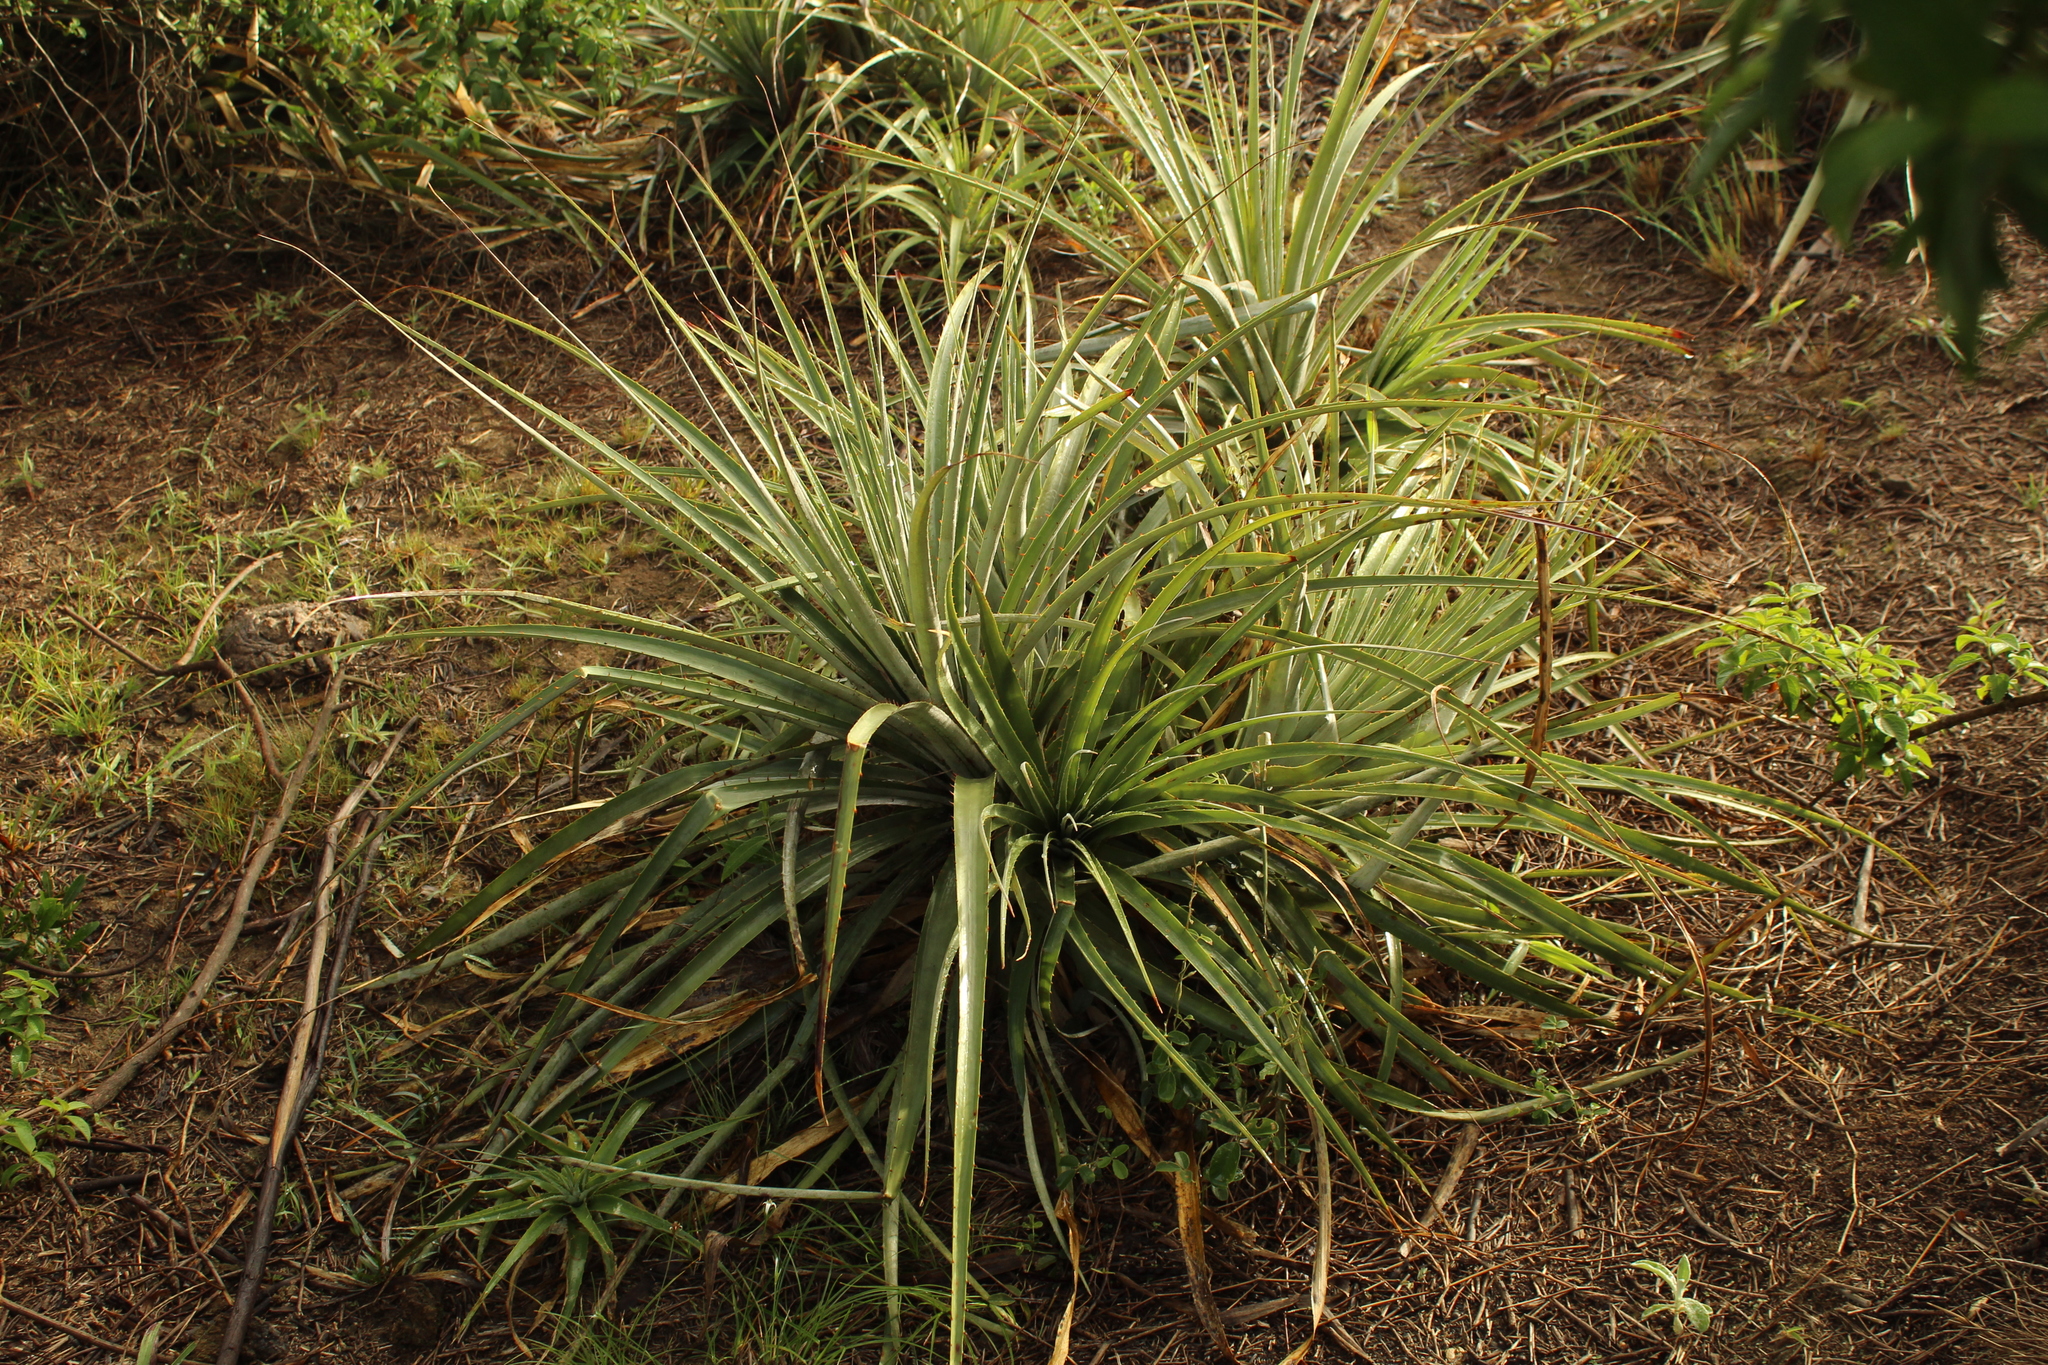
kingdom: Plantae
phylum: Tracheophyta
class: Liliopsida
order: Poales
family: Bromeliaceae
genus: Puya
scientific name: Puya bicolor
